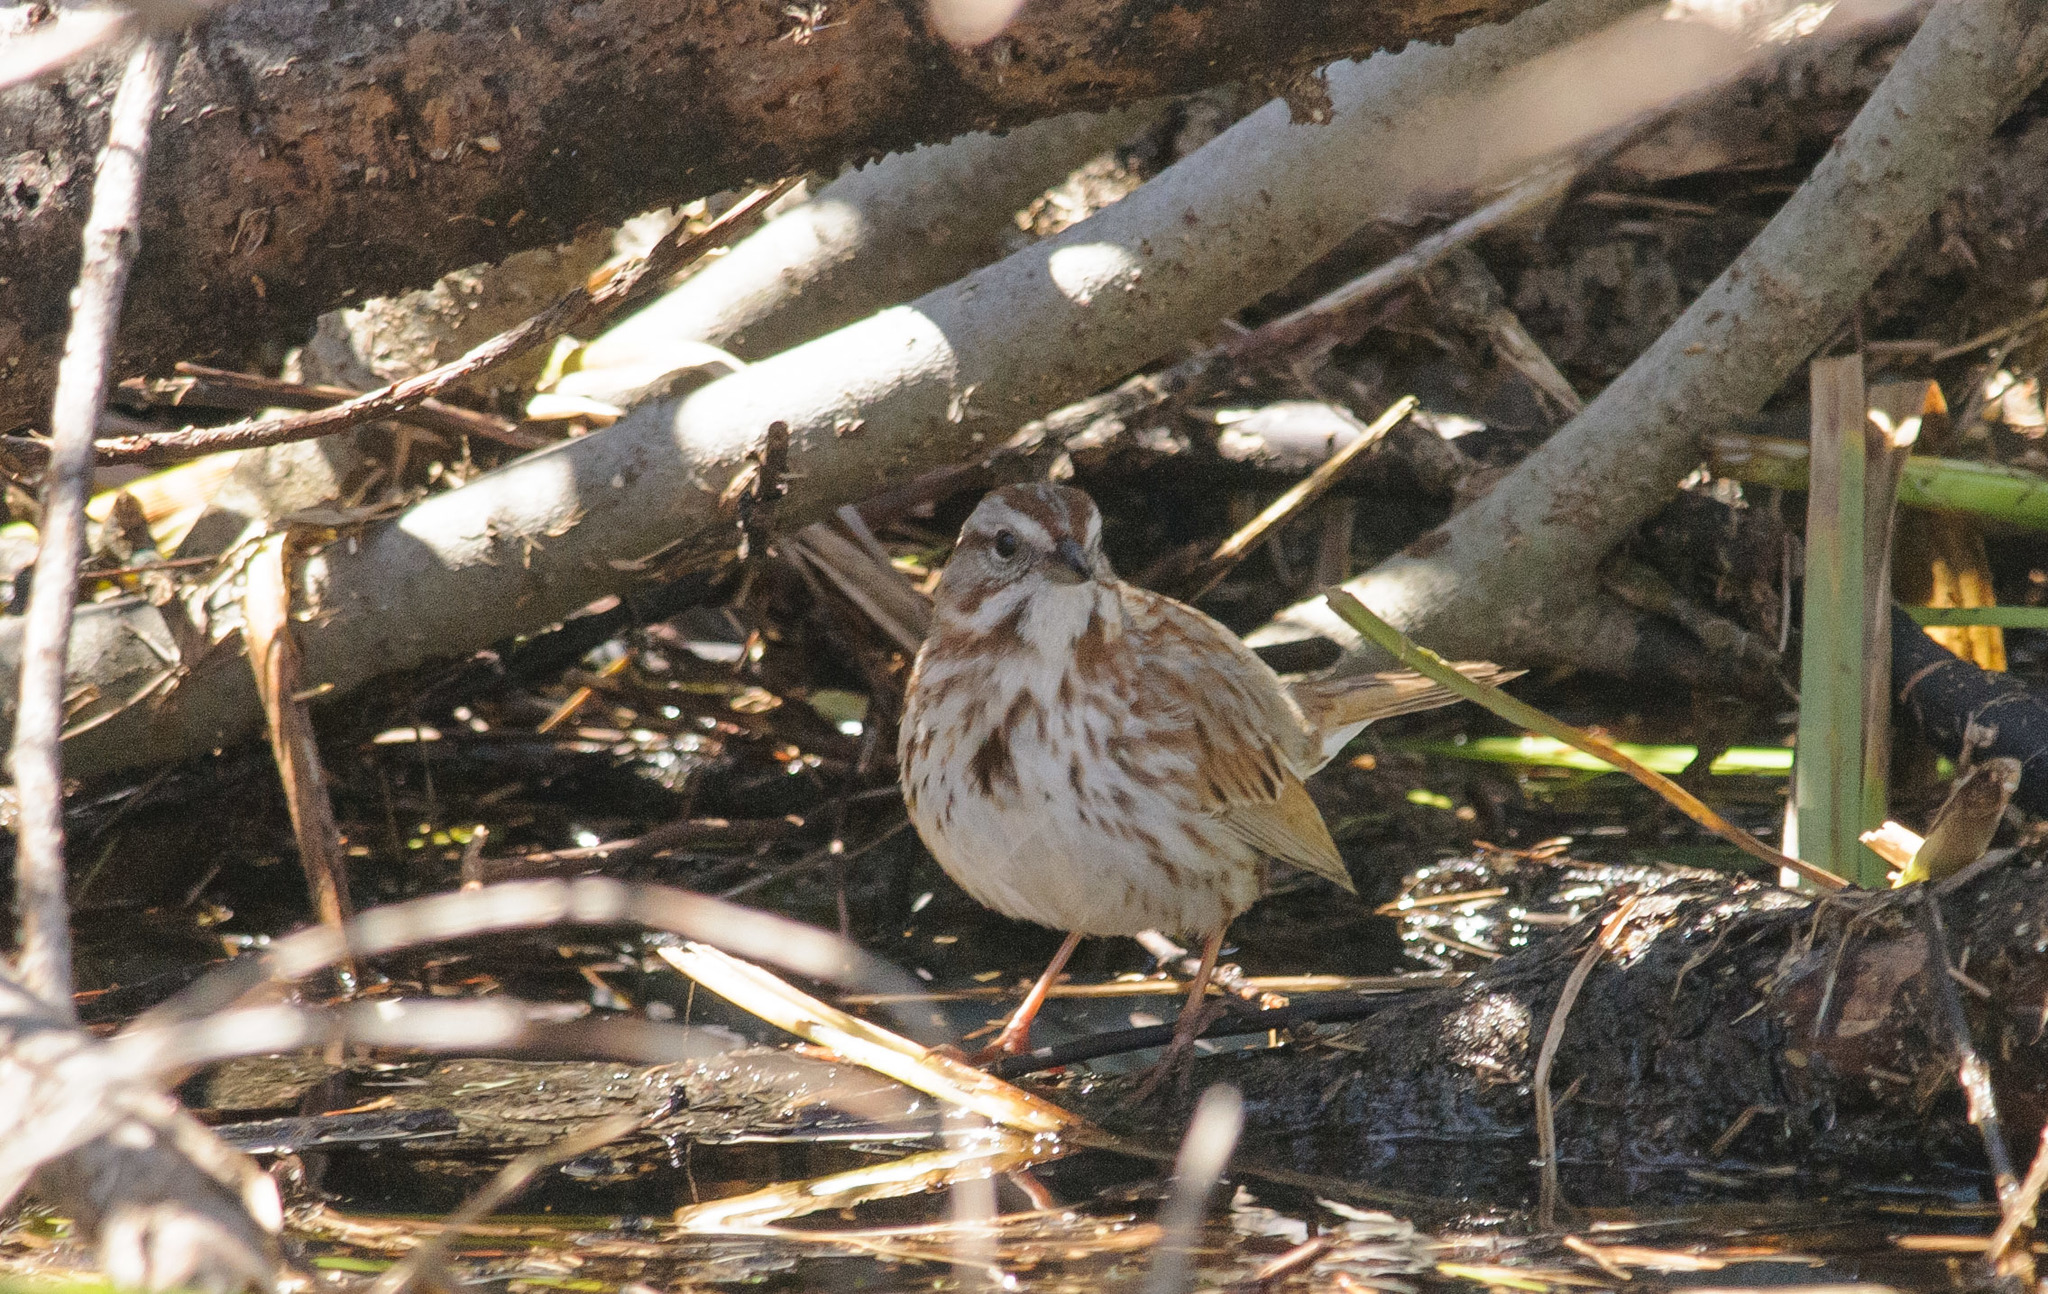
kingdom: Animalia
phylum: Chordata
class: Aves
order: Passeriformes
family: Passerellidae
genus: Melospiza
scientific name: Melospiza melodia
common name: Song sparrow
